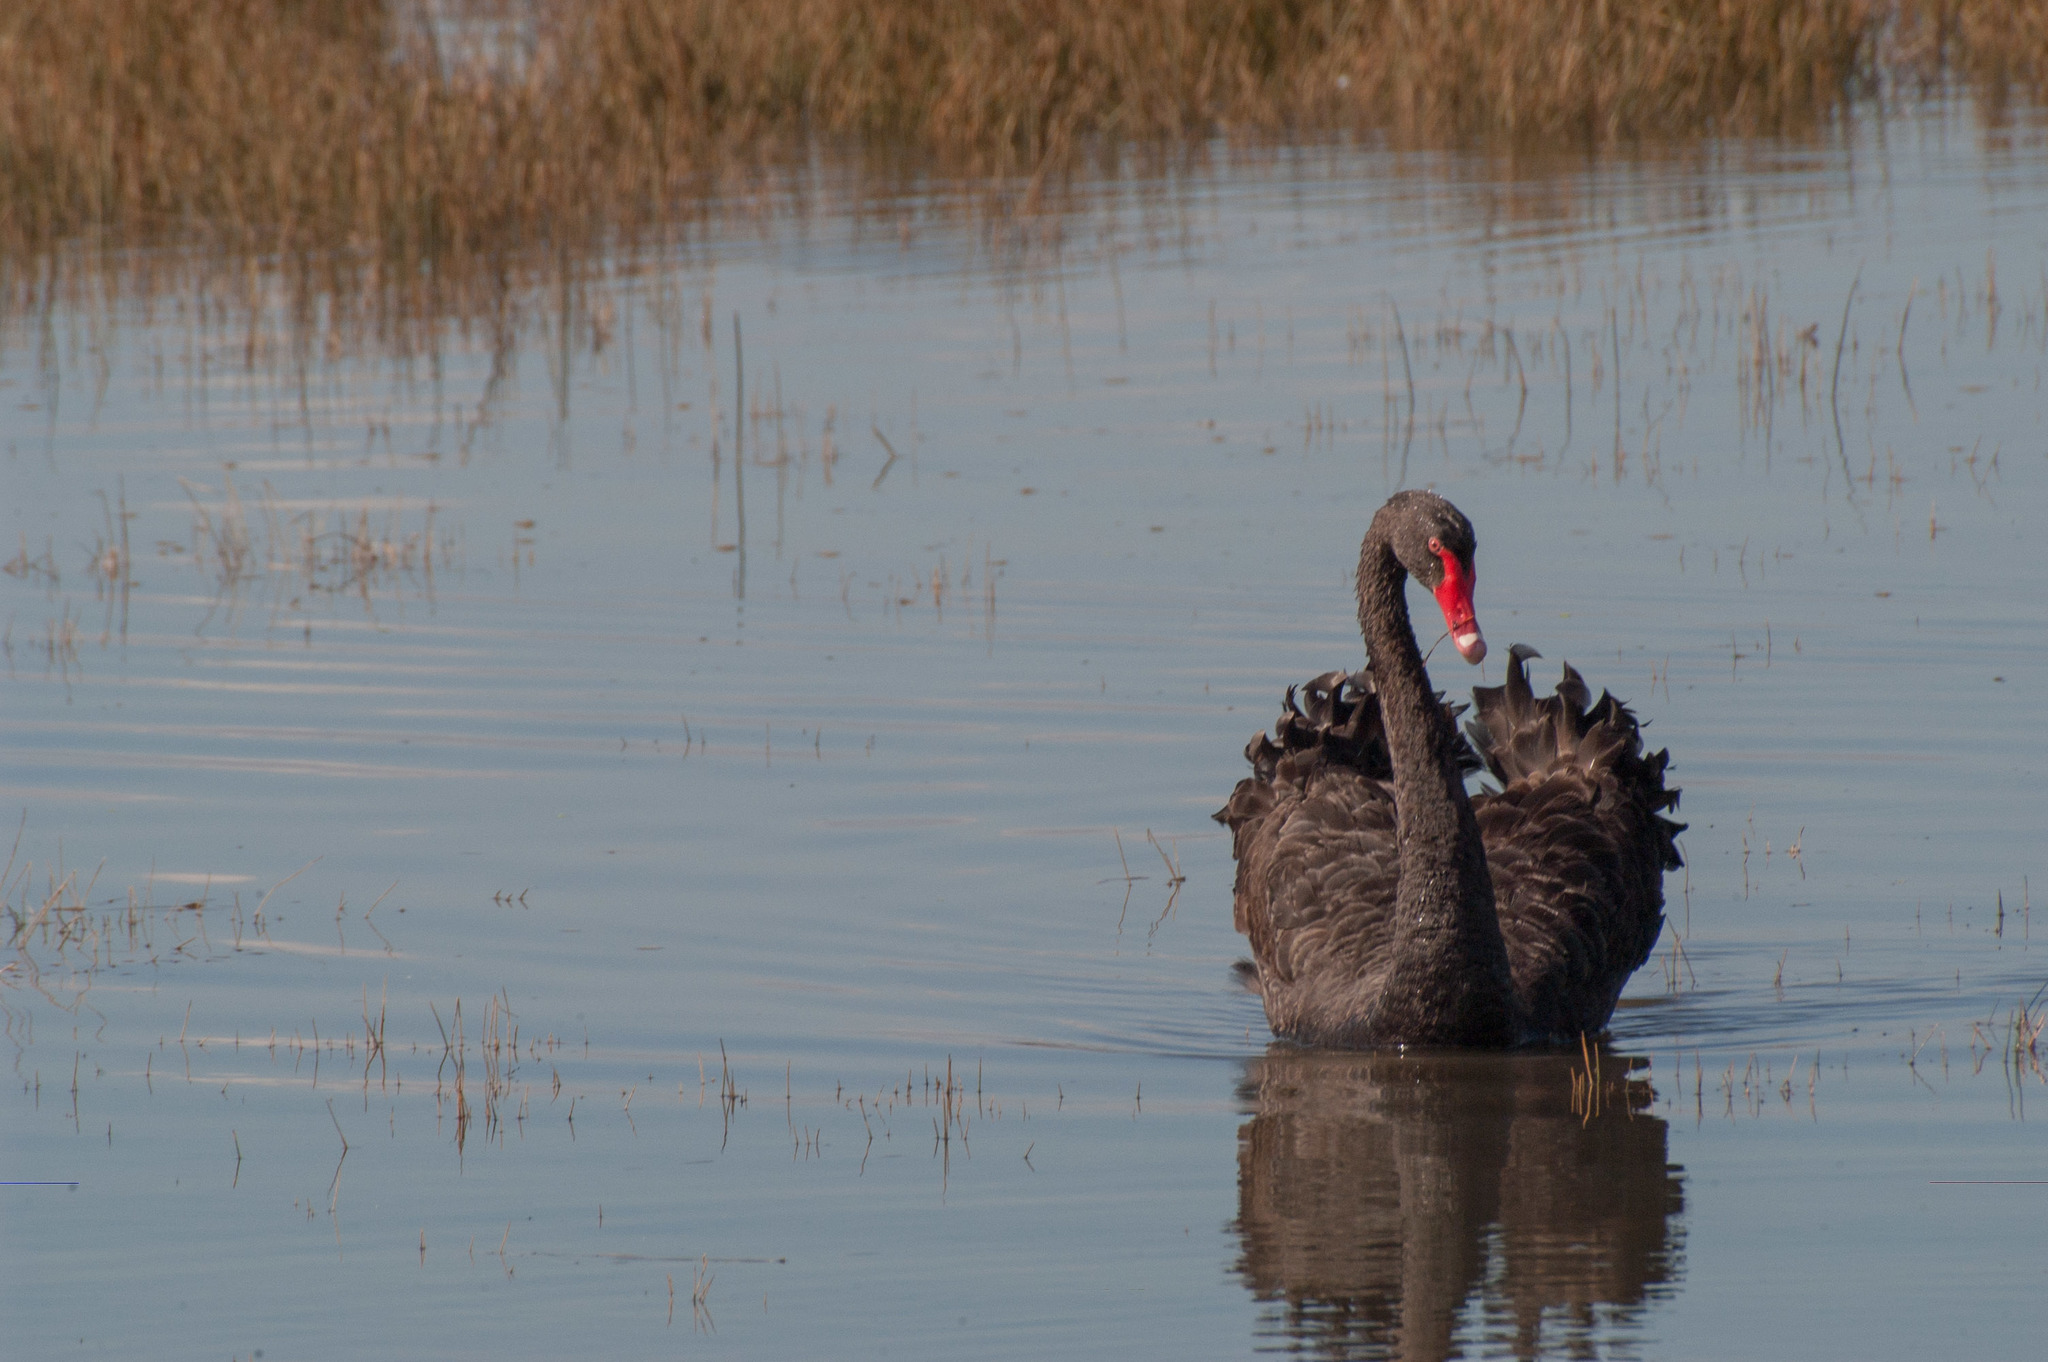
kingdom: Animalia
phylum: Chordata
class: Aves
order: Anseriformes
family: Anatidae
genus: Cygnus
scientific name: Cygnus atratus
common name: Black swan
